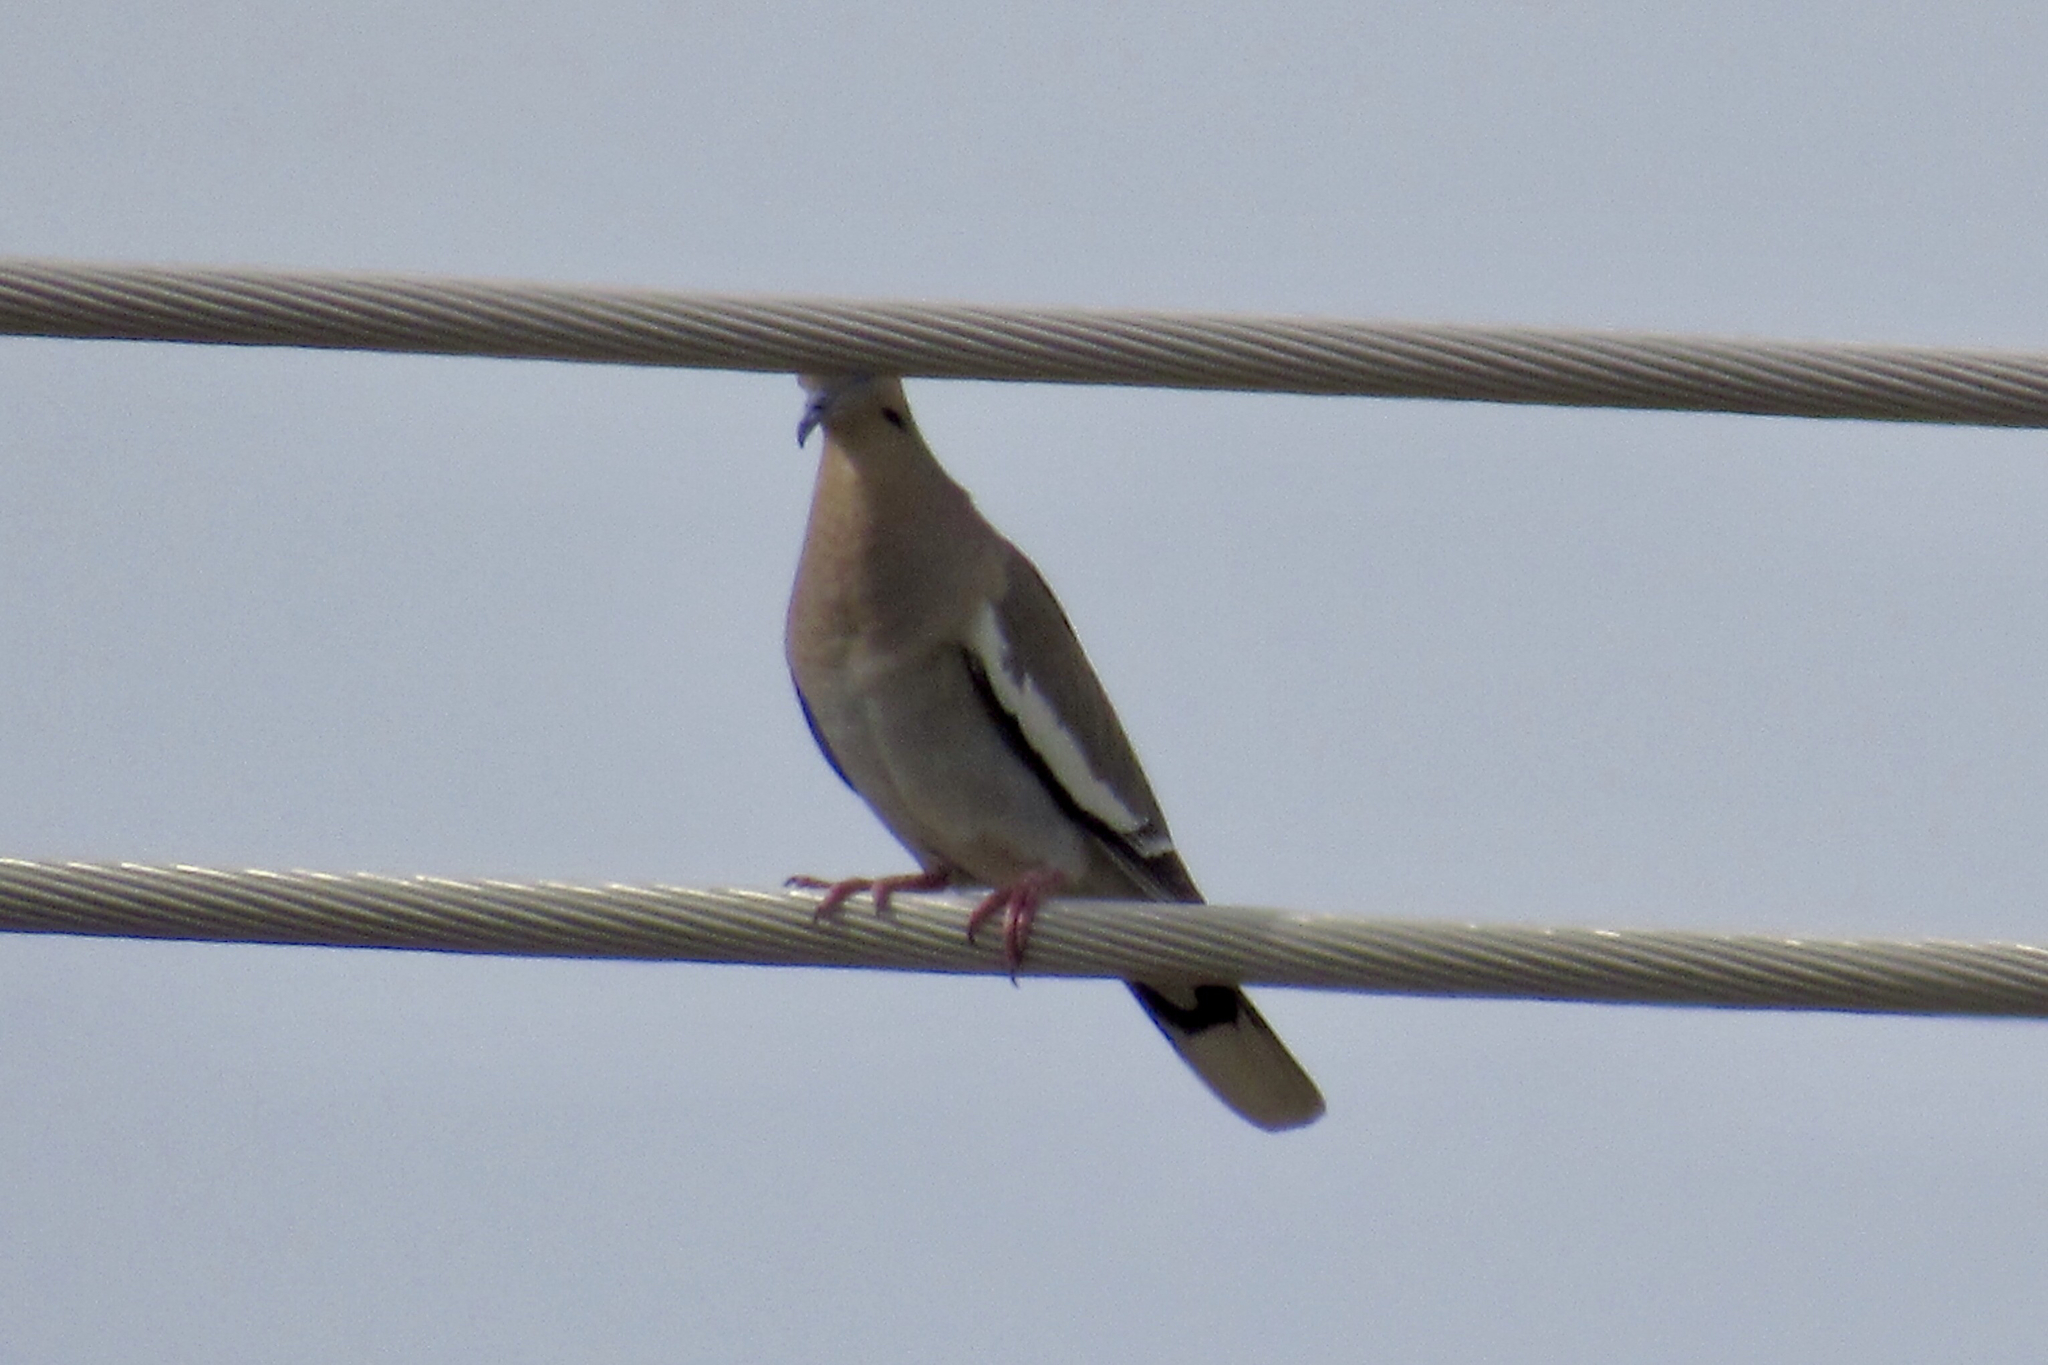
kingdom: Animalia
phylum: Chordata
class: Aves
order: Columbiformes
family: Columbidae
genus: Zenaida
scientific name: Zenaida asiatica
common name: White-winged dove
